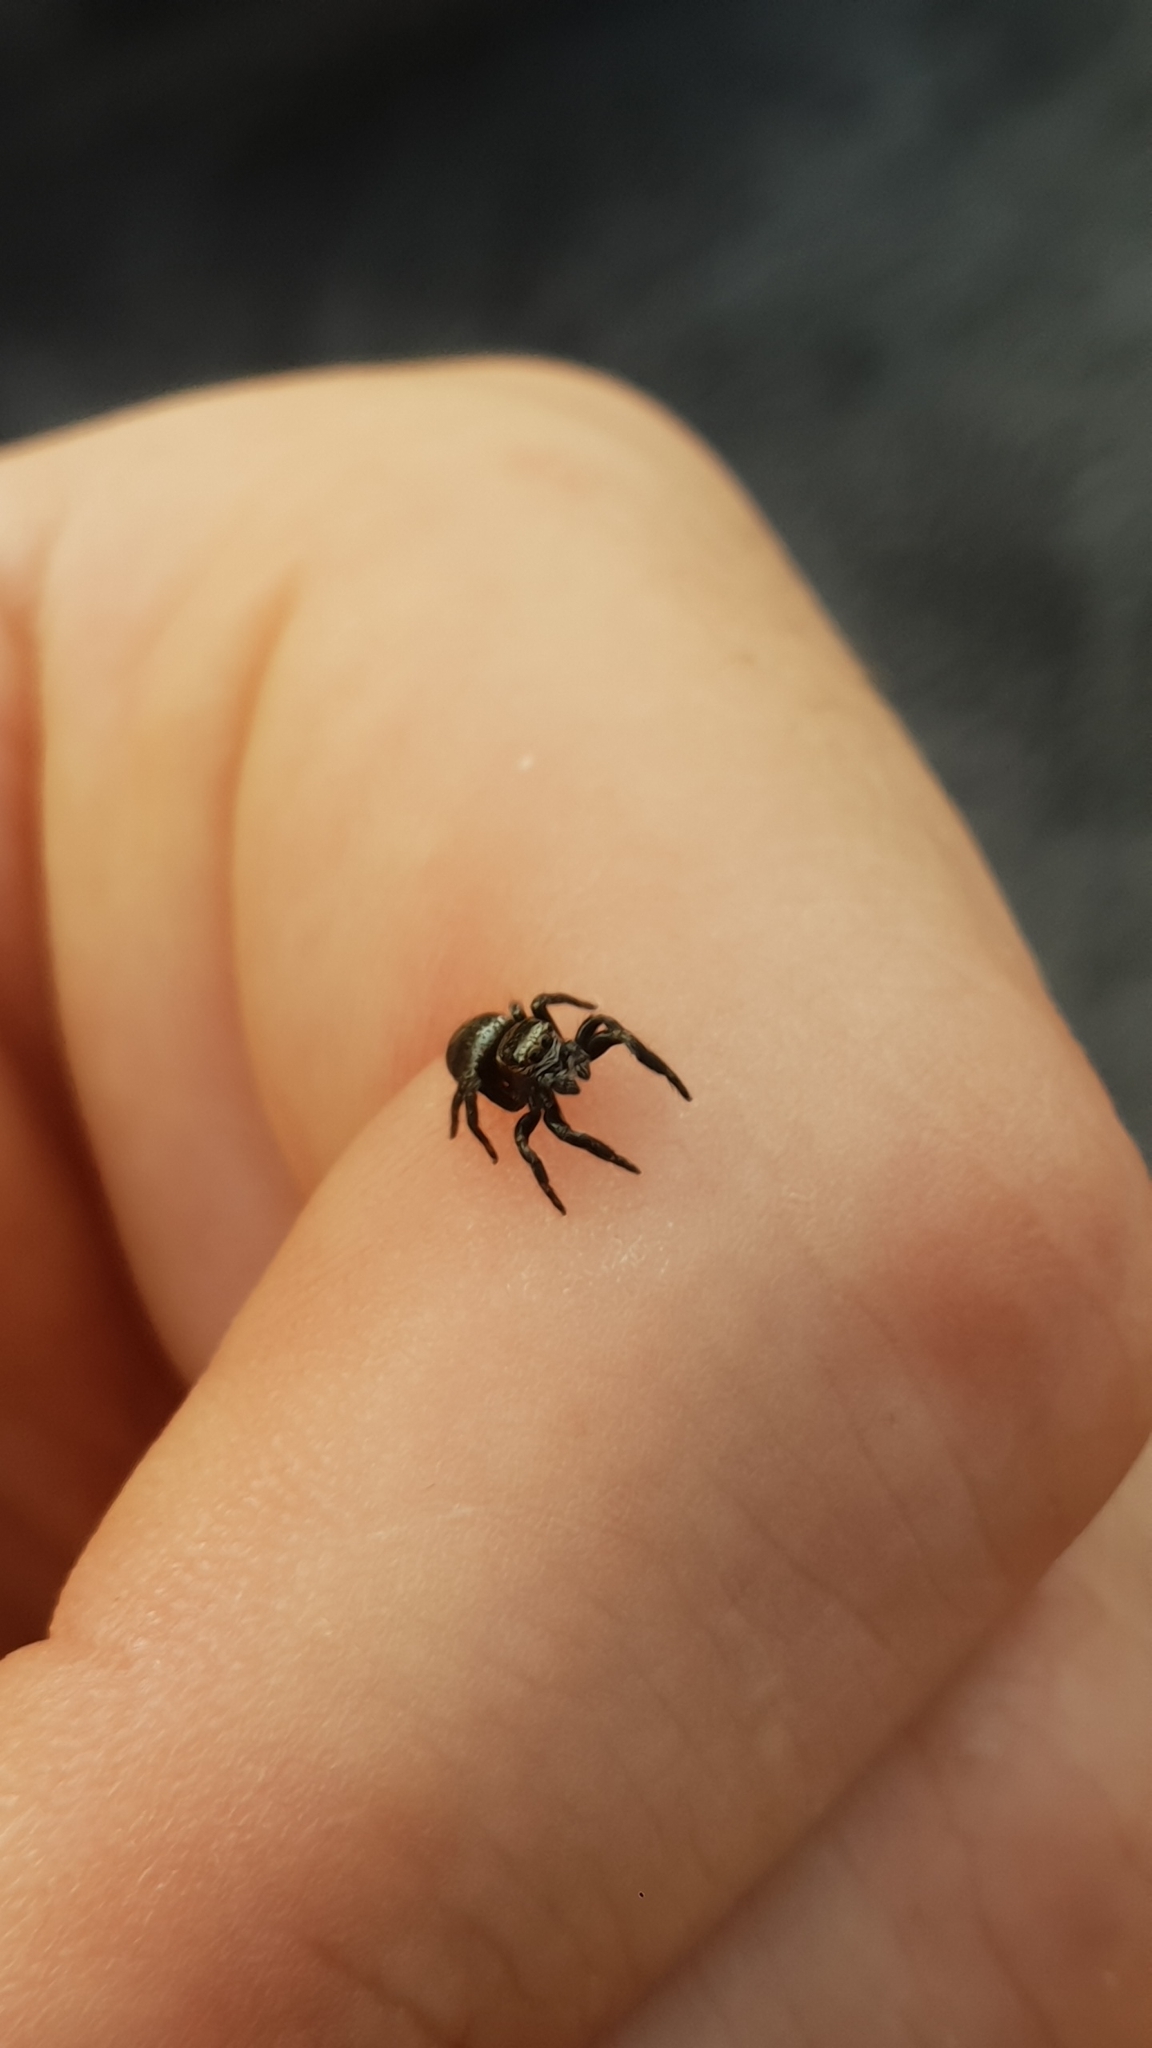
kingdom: Animalia
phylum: Arthropoda
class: Arachnida
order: Araneae
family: Salticidae
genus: Evarcha
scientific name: Evarcha arcuata
